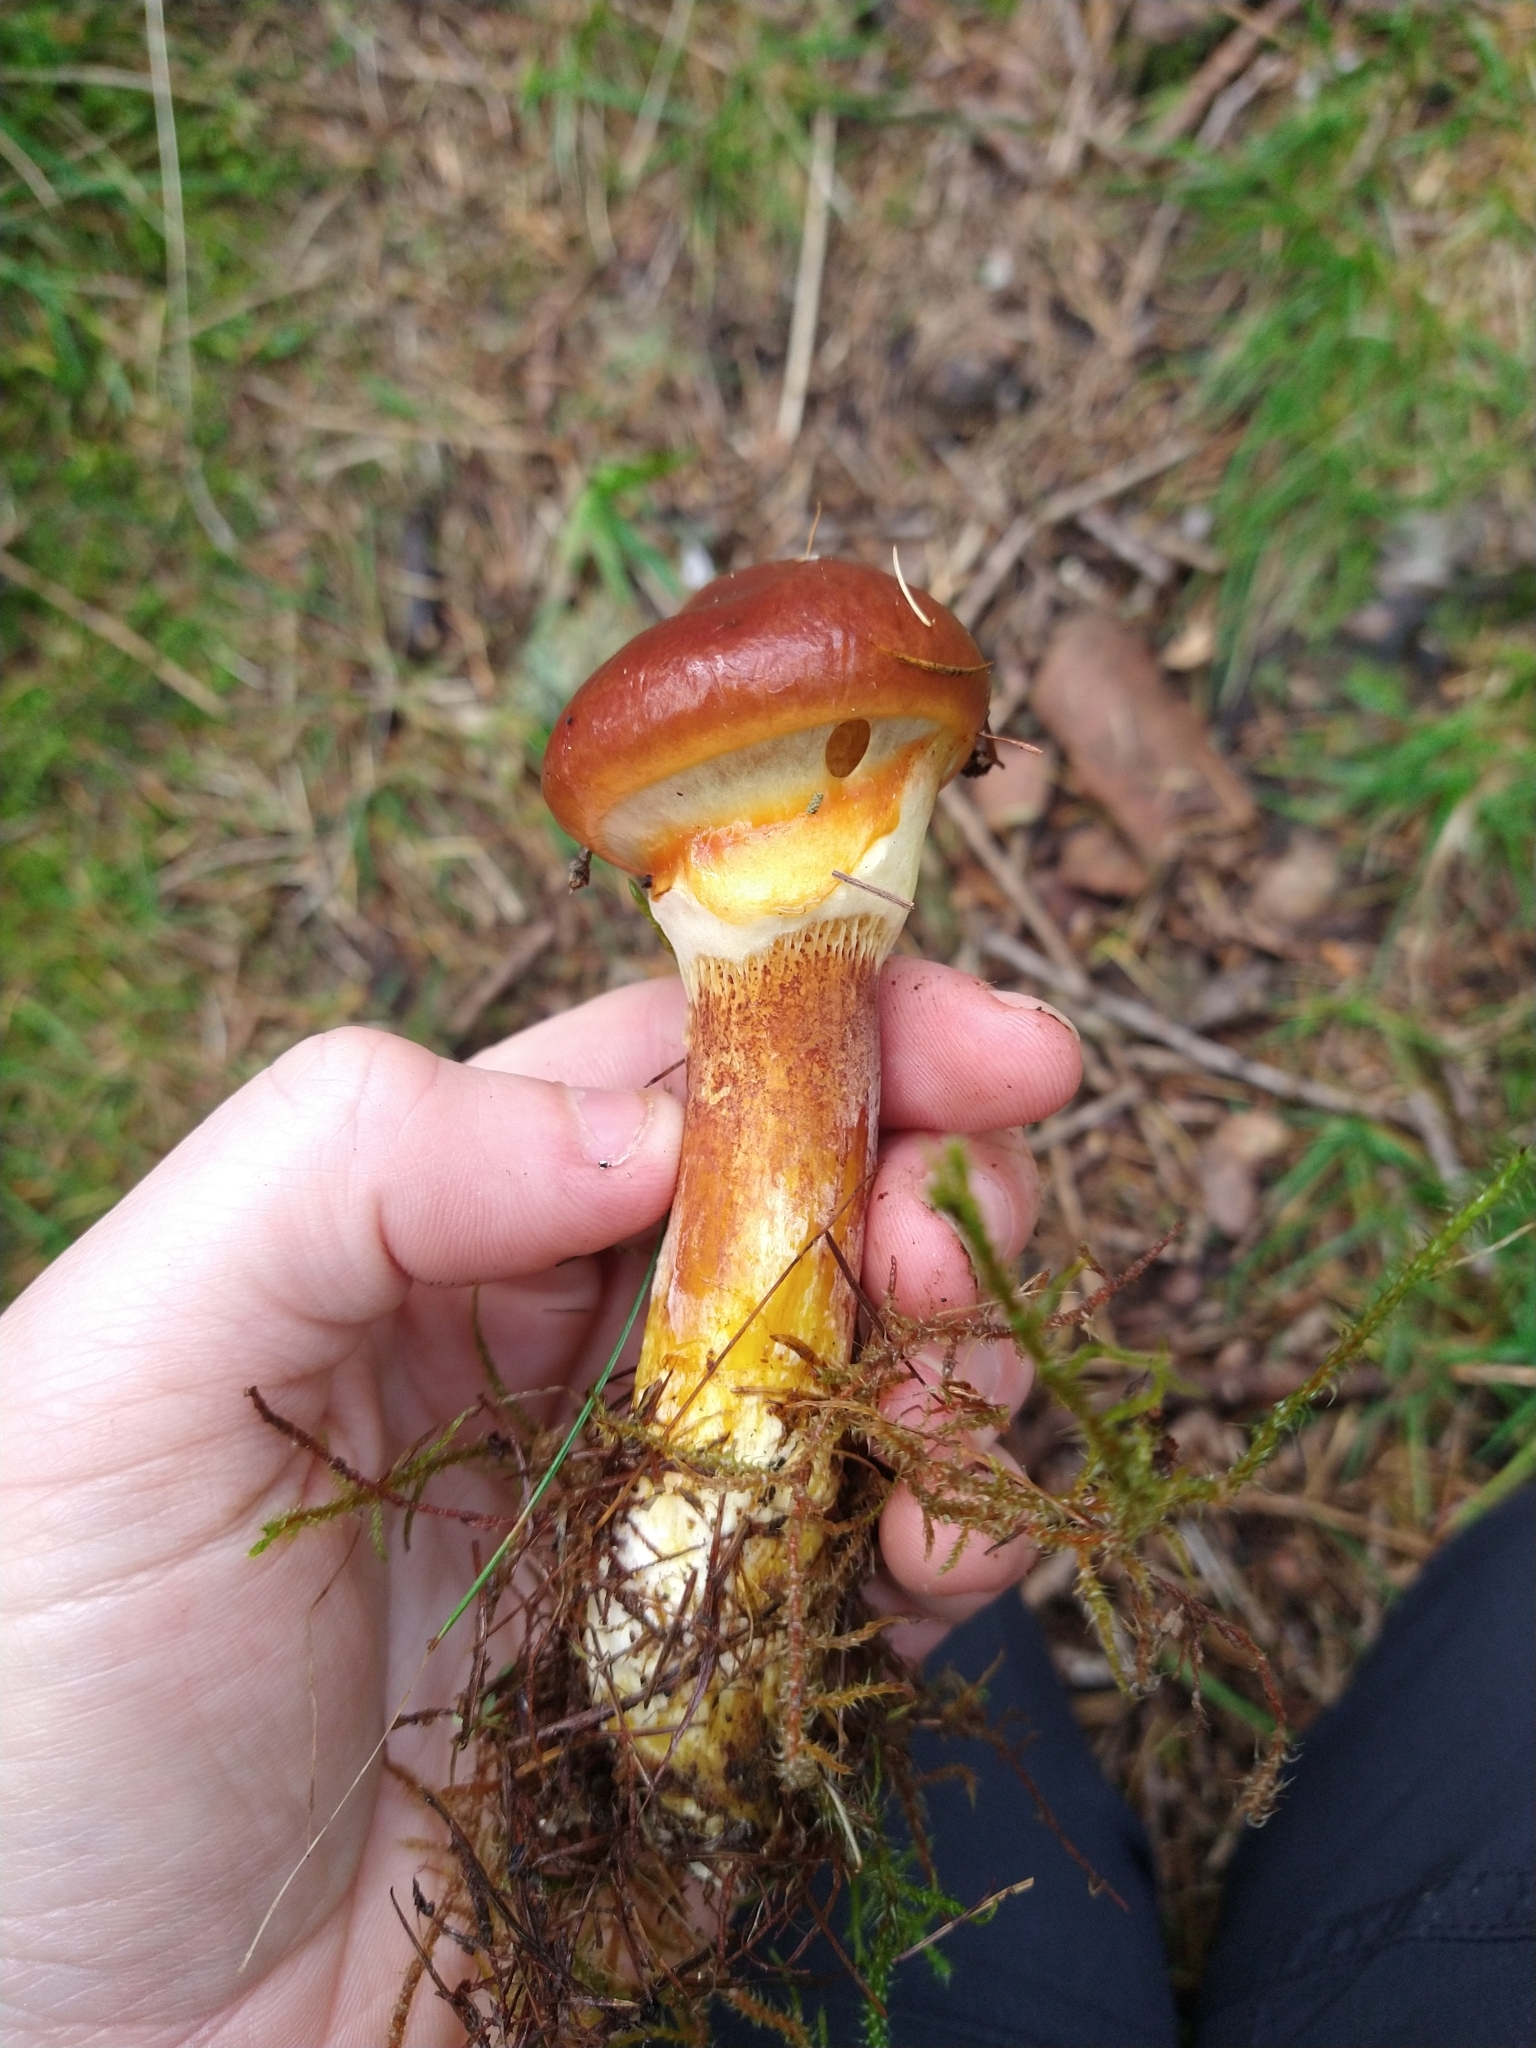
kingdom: Fungi
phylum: Basidiomycota
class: Agaricomycetes
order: Boletales
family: Suillaceae
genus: Suillus
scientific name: Suillus grevillei
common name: Larch bolete
